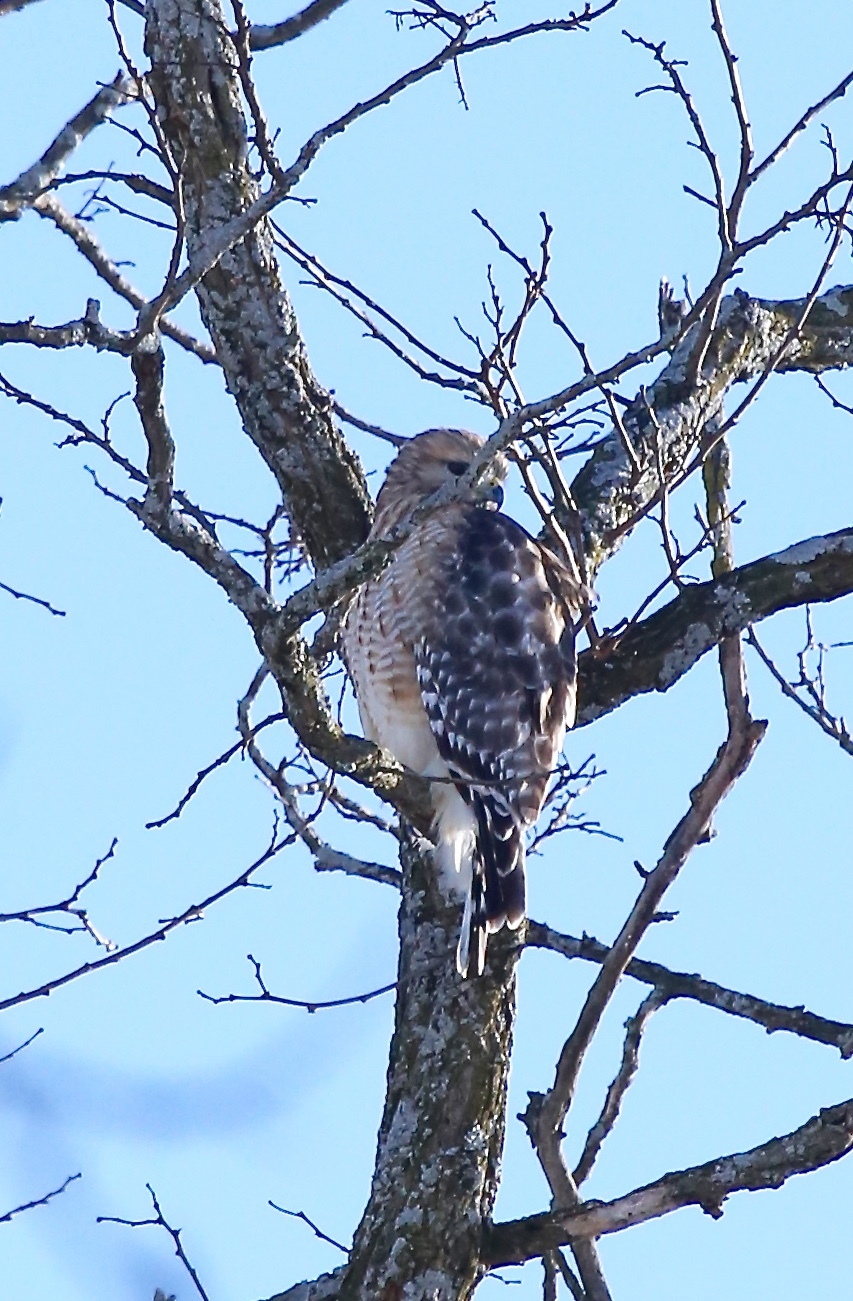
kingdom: Animalia
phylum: Chordata
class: Aves
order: Accipitriformes
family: Accipitridae
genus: Buteo
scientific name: Buteo lineatus
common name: Red-shouldered hawk
